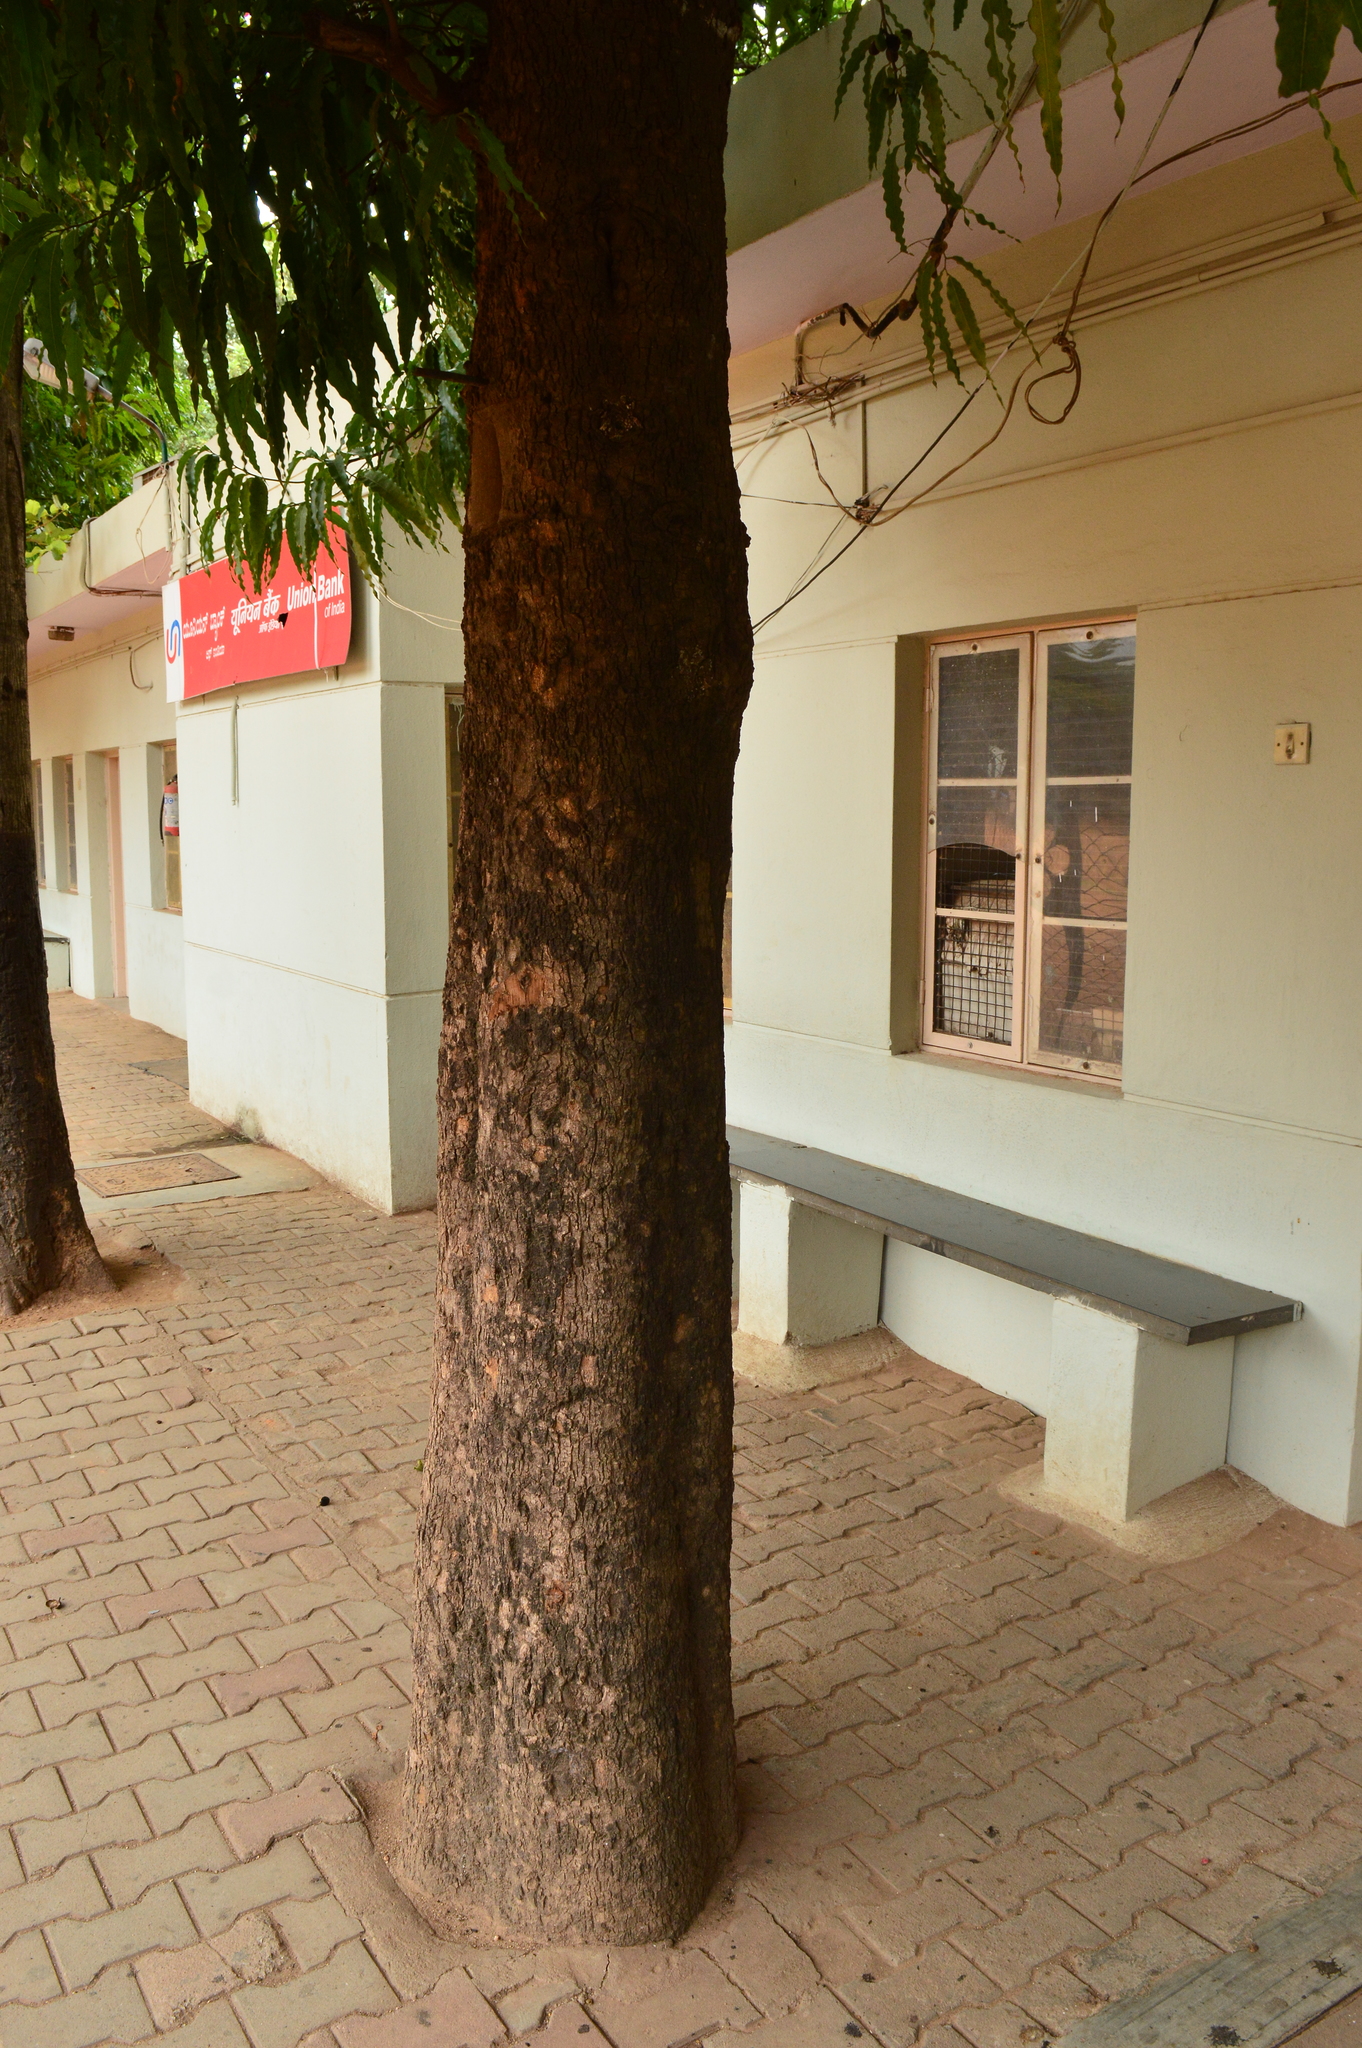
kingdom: Plantae
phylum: Tracheophyta
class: Magnoliopsida
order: Magnoliales
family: Annonaceae
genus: Polyalthia
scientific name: Polyalthia longifolia
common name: Cemetery-tree
